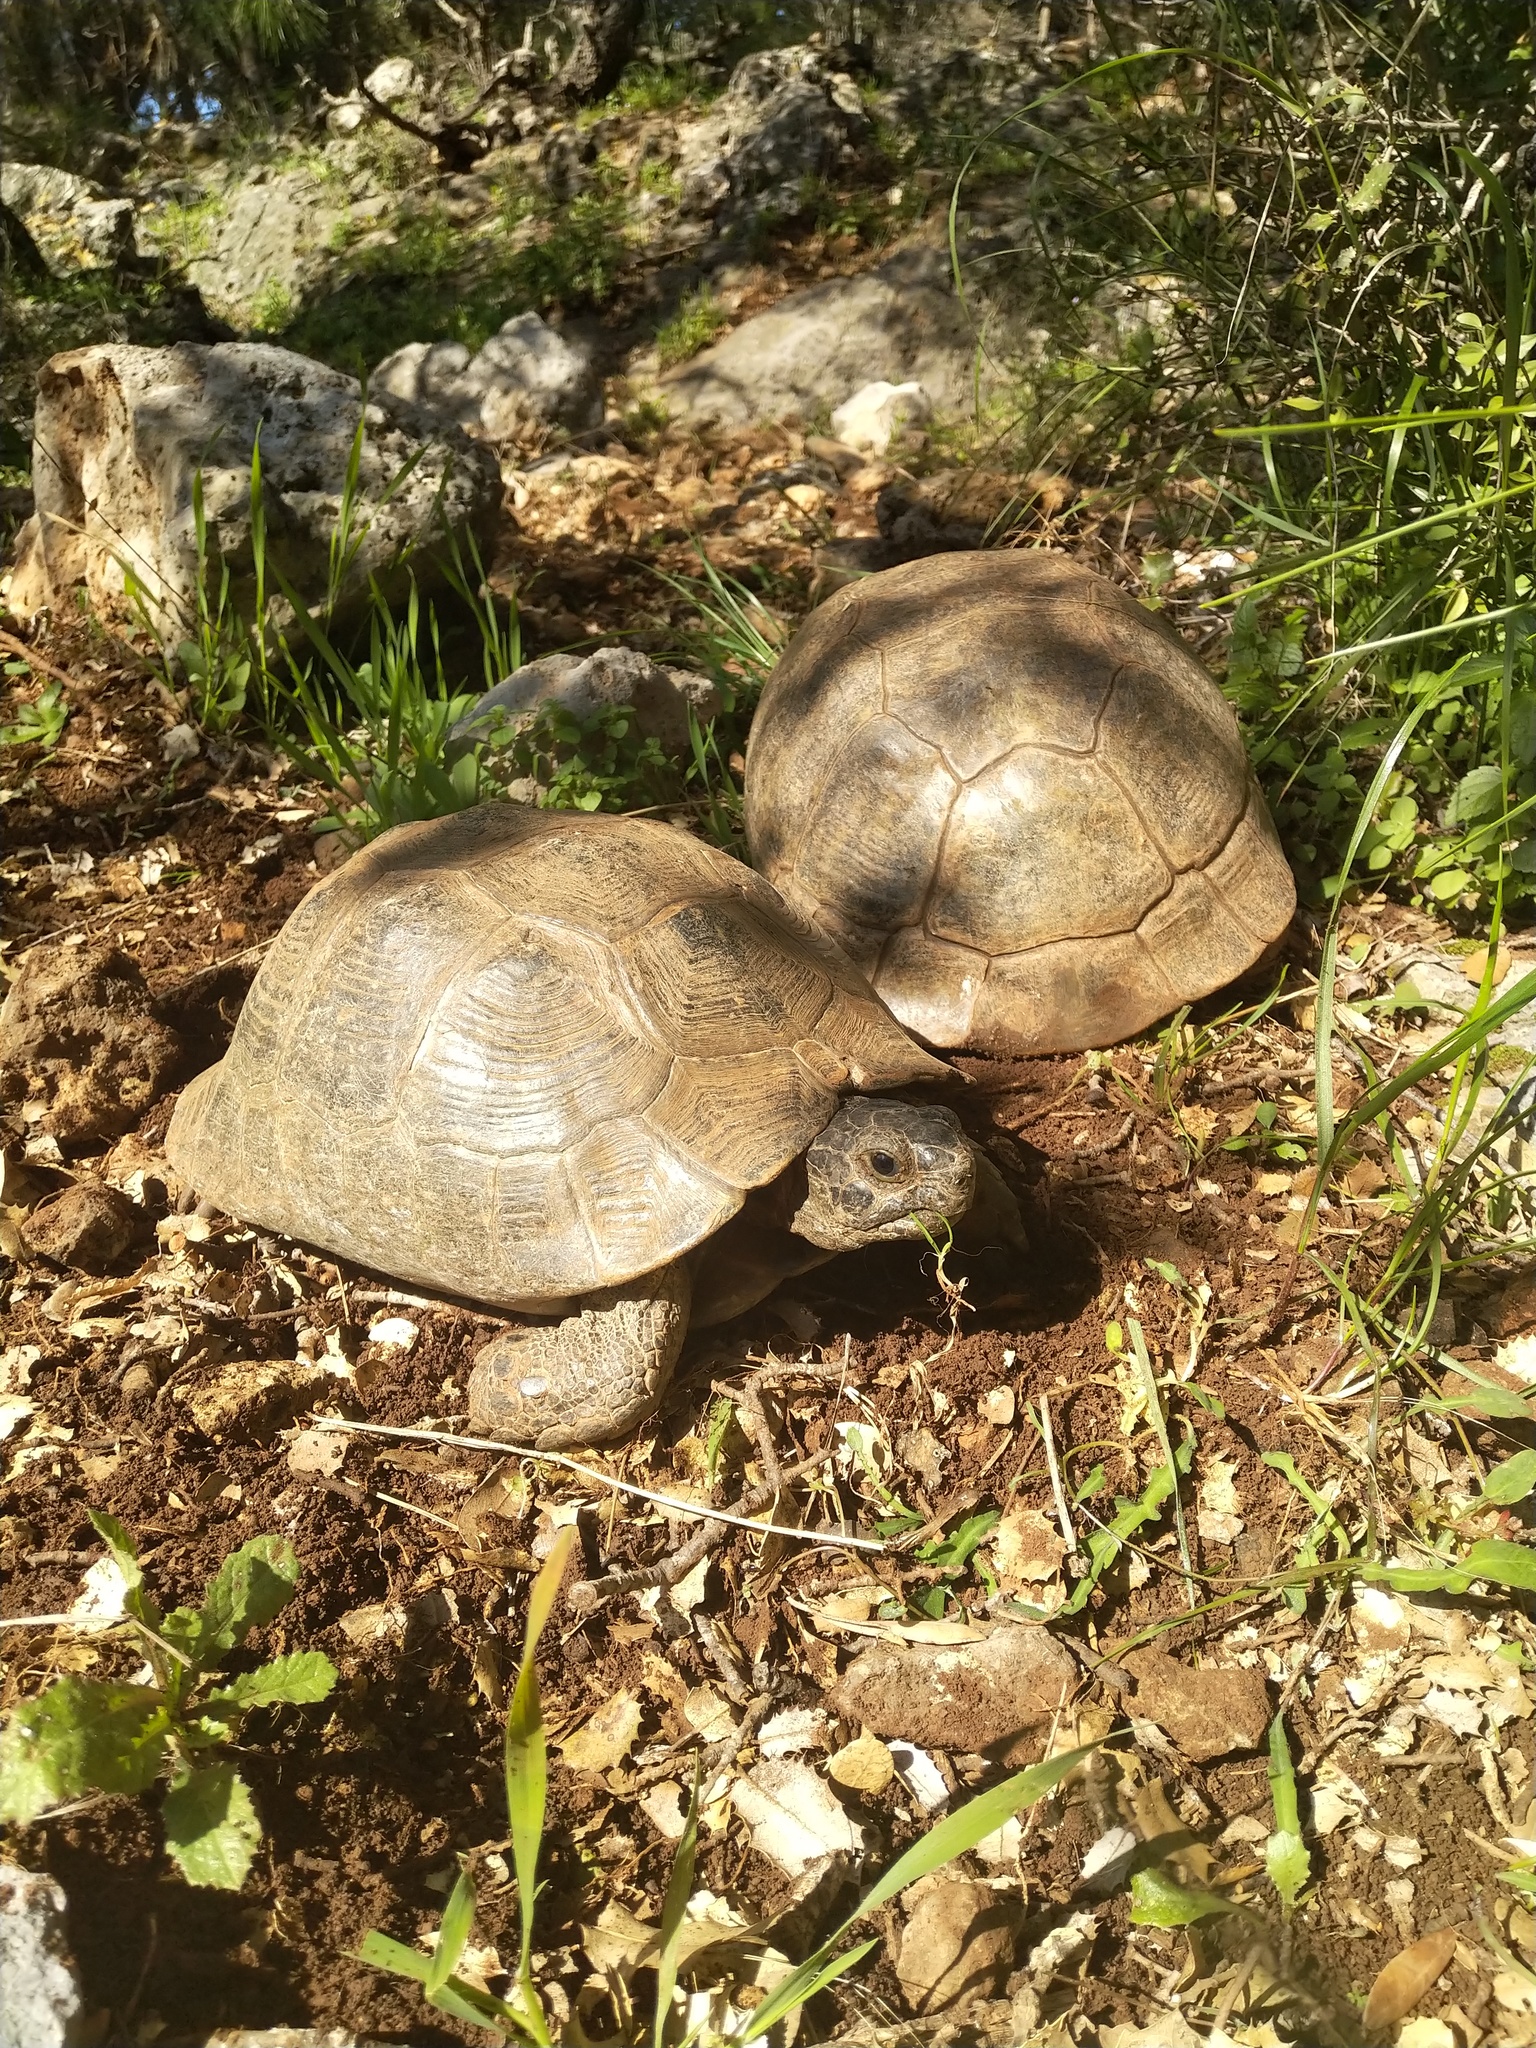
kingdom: Animalia
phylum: Chordata
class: Testudines
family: Testudinidae
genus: Testudo
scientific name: Testudo graeca
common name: Common tortoise
